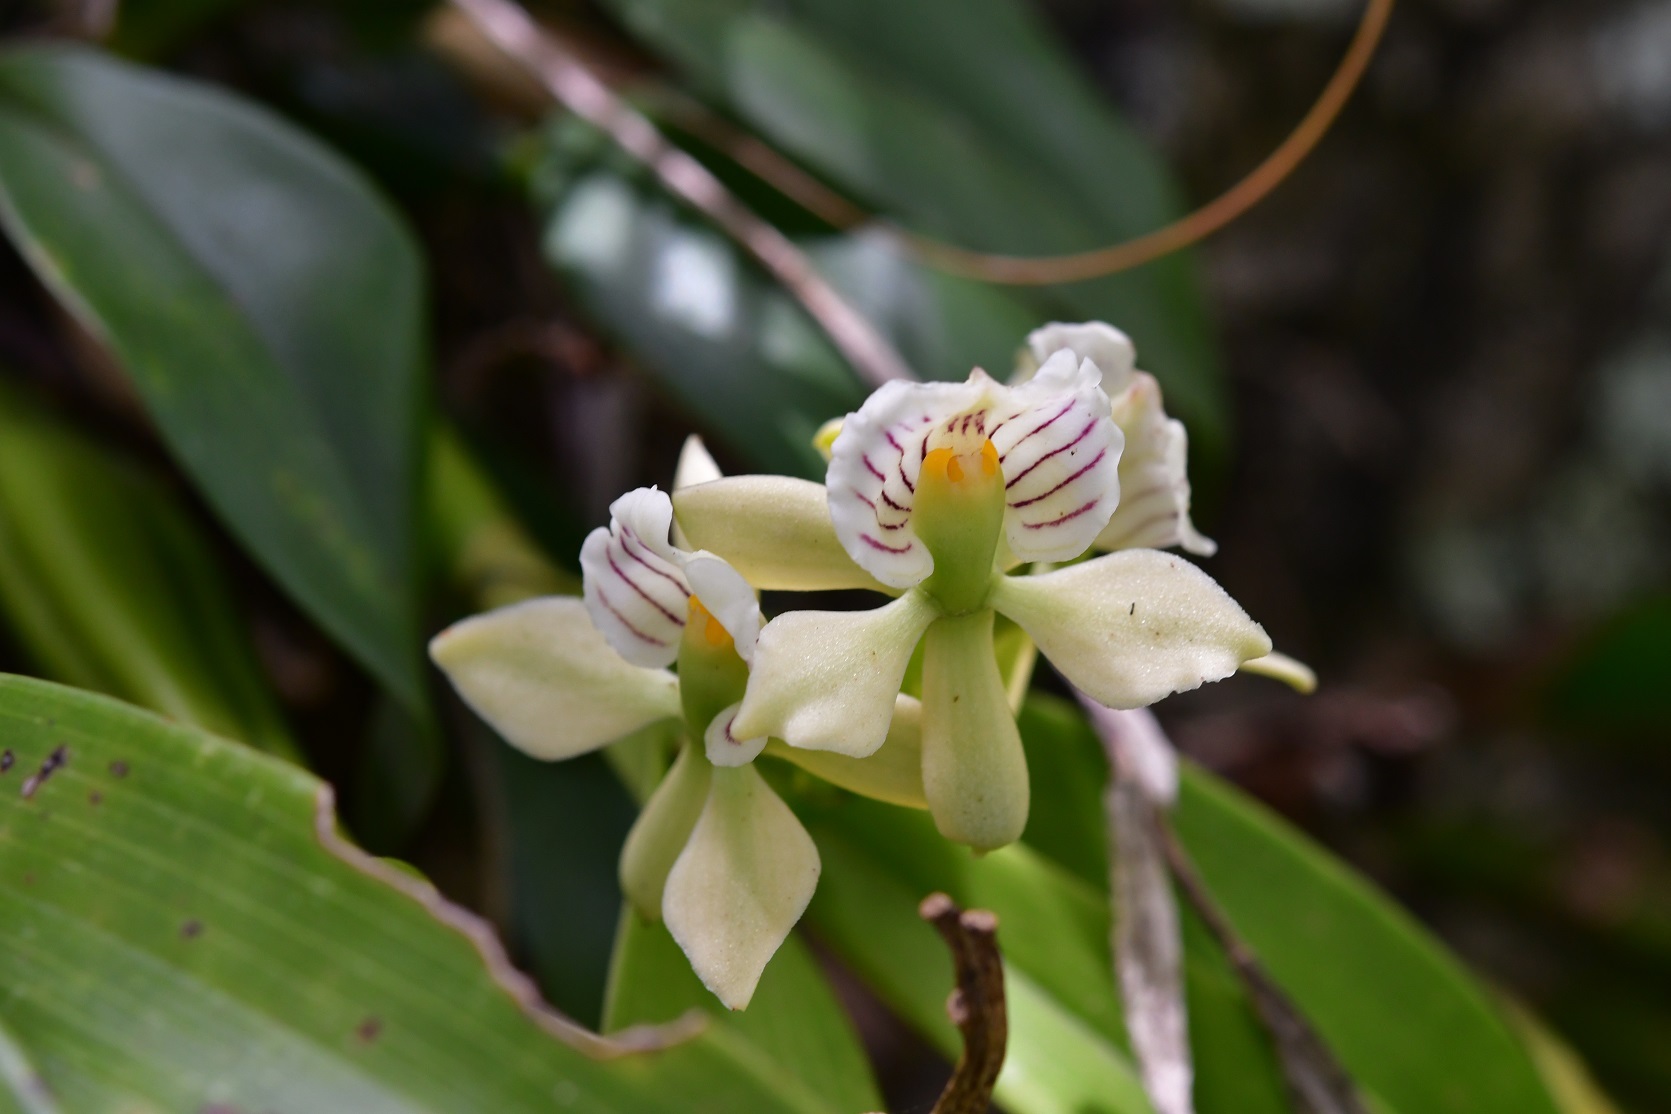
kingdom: Plantae
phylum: Tracheophyta
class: Liliopsida
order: Asparagales
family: Orchidaceae
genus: Prosthechea
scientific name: Prosthechea radiata
